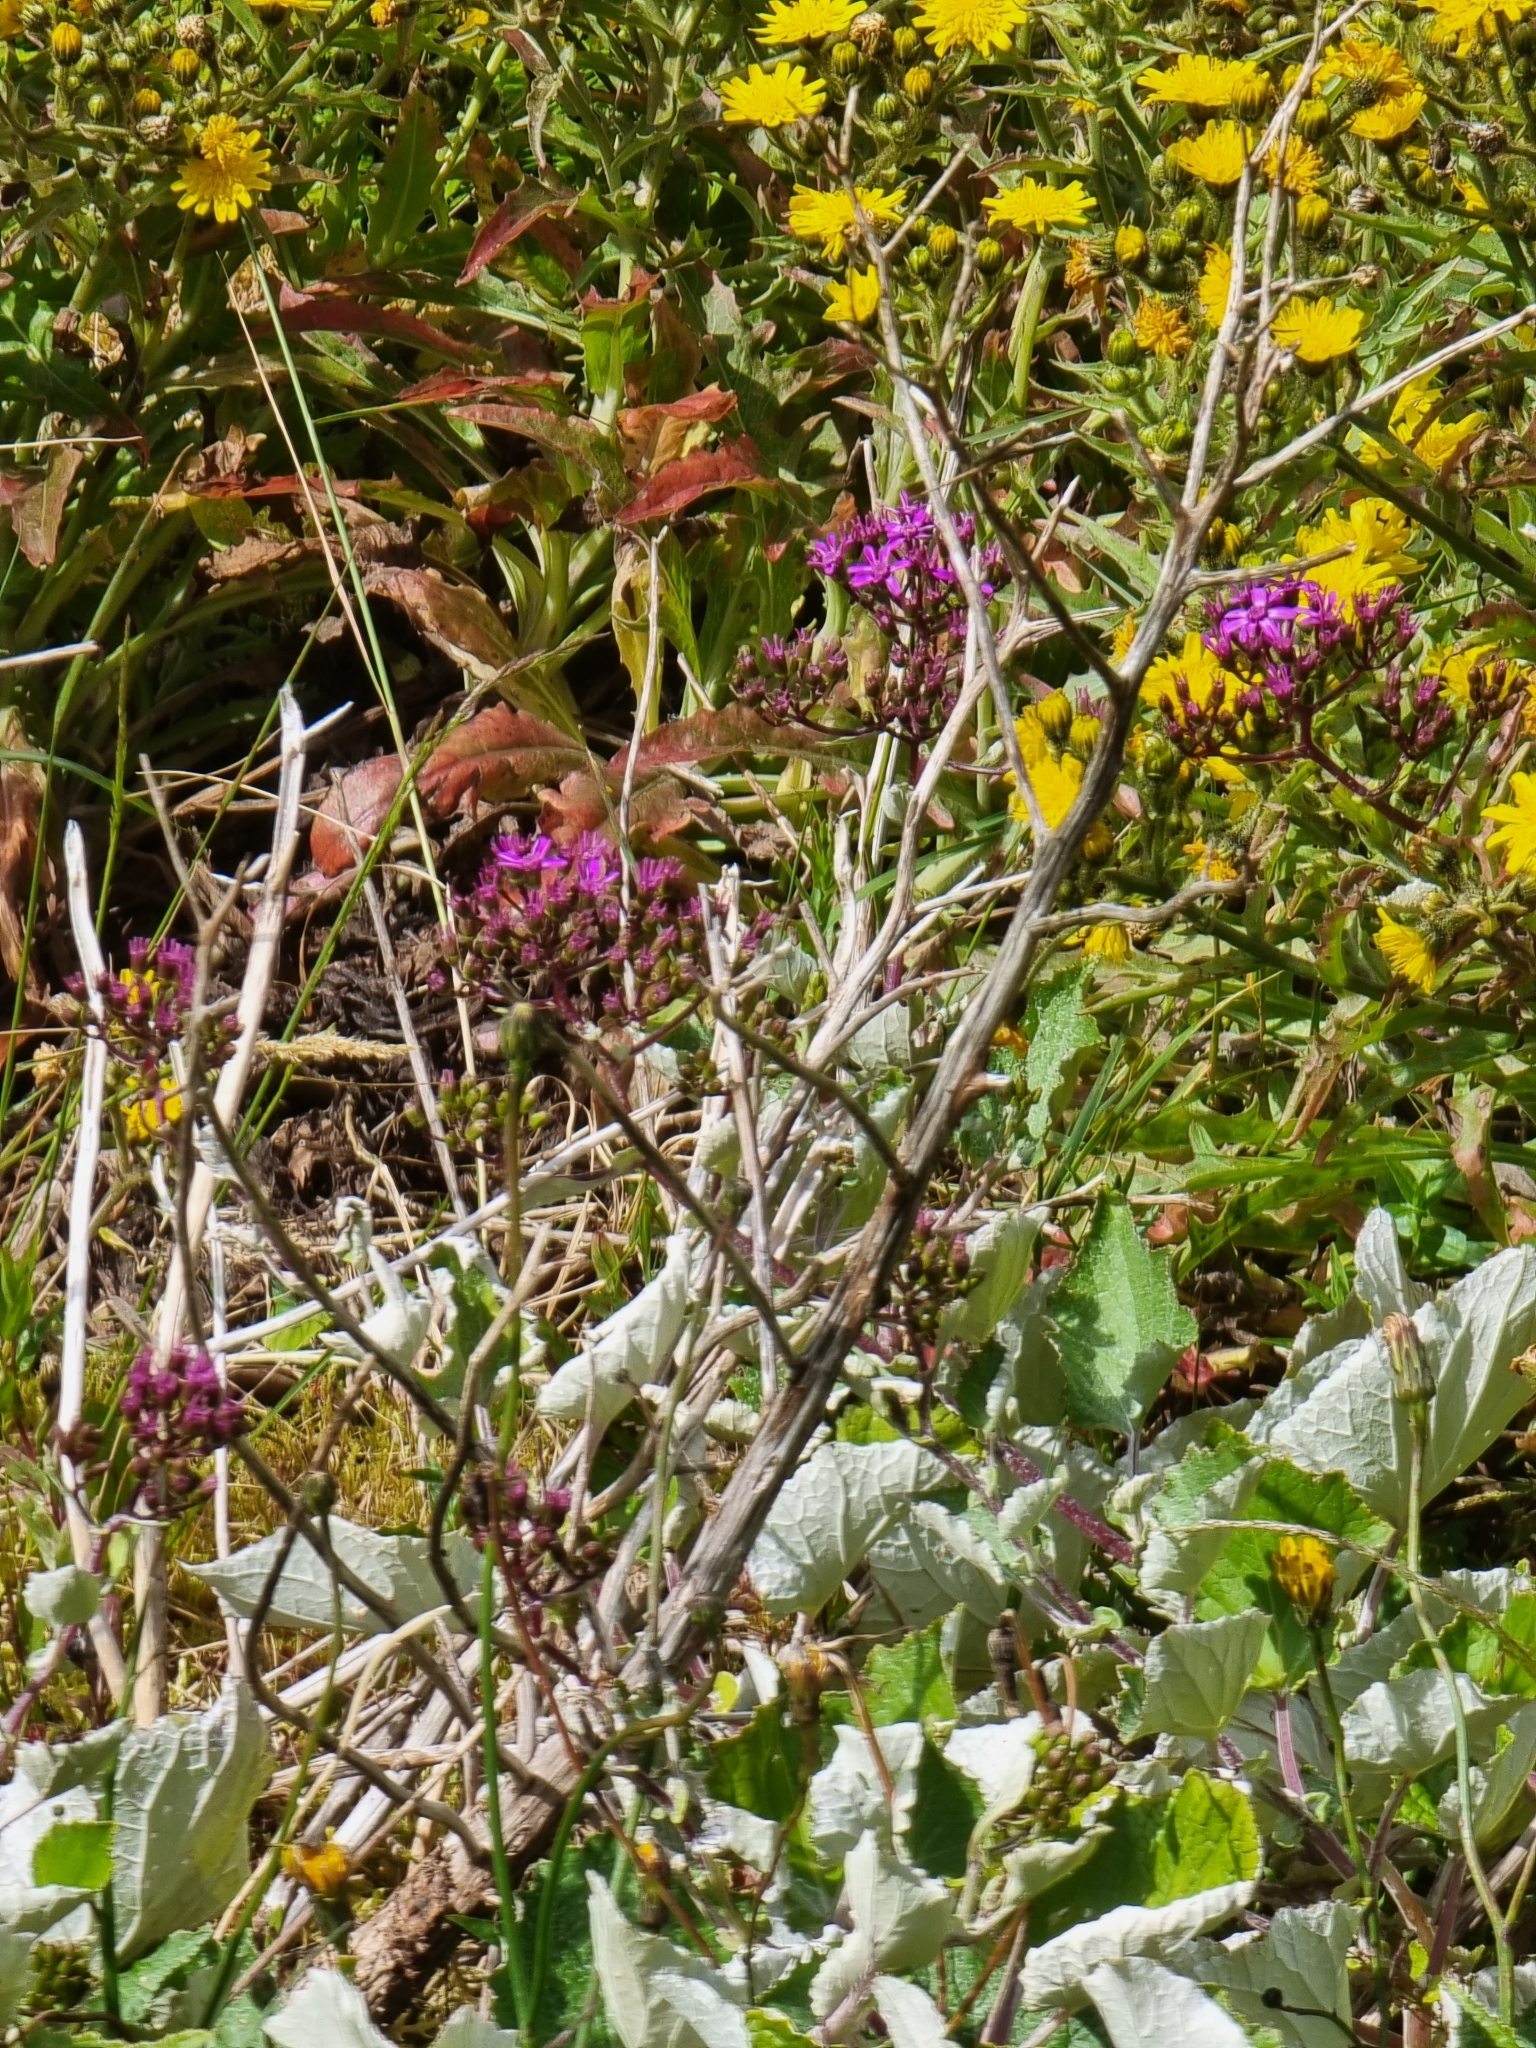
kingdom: Plantae
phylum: Tracheophyta
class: Magnoliopsida
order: Asterales
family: Asteraceae
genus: Pericallis
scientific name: Pericallis aurita
